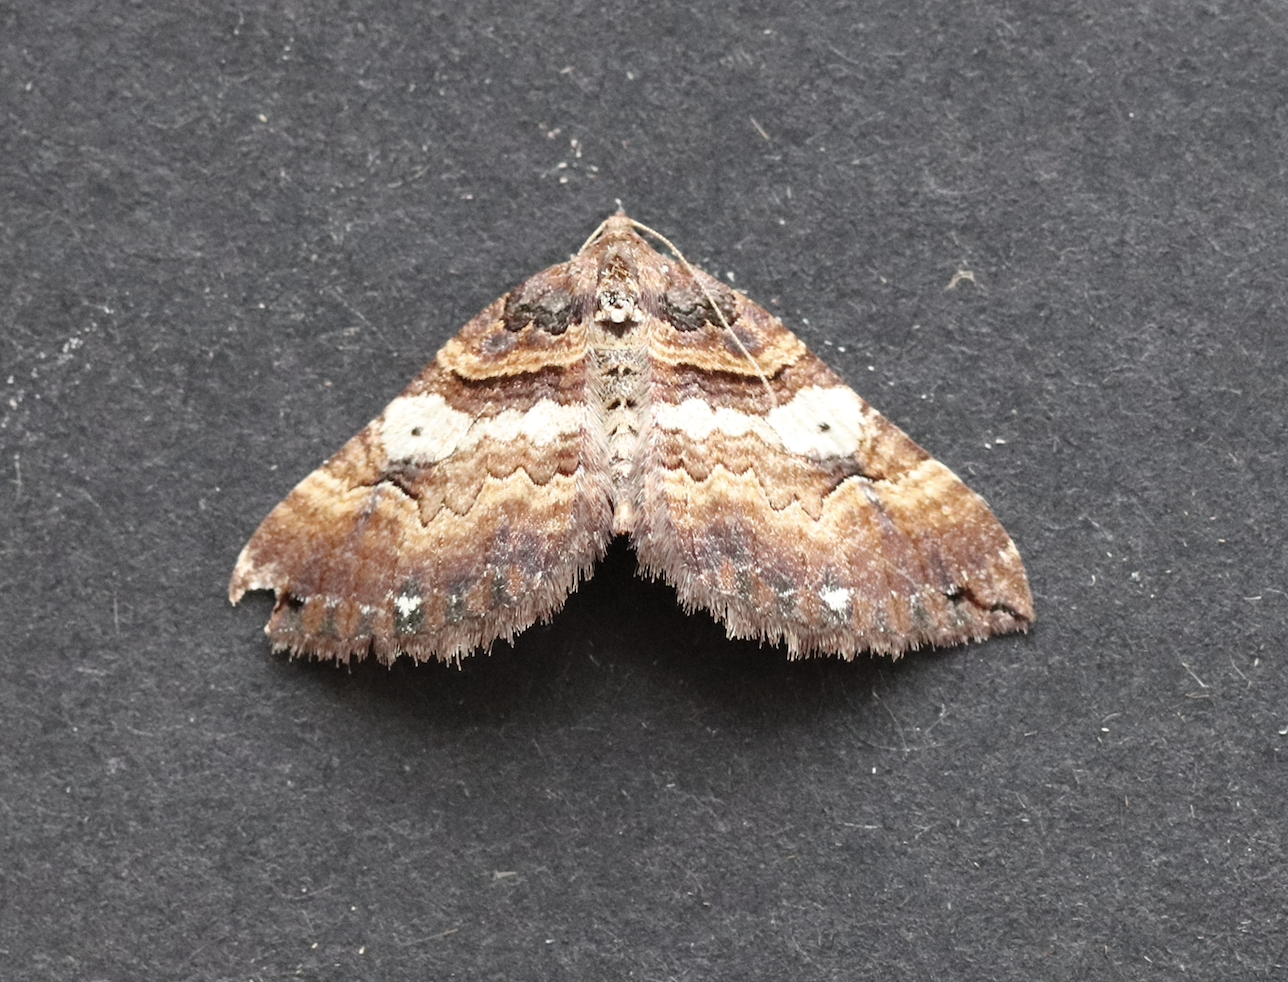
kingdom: Animalia
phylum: Arthropoda
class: Insecta
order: Lepidoptera
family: Geometridae
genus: Anticlea
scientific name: Anticlea badiata
